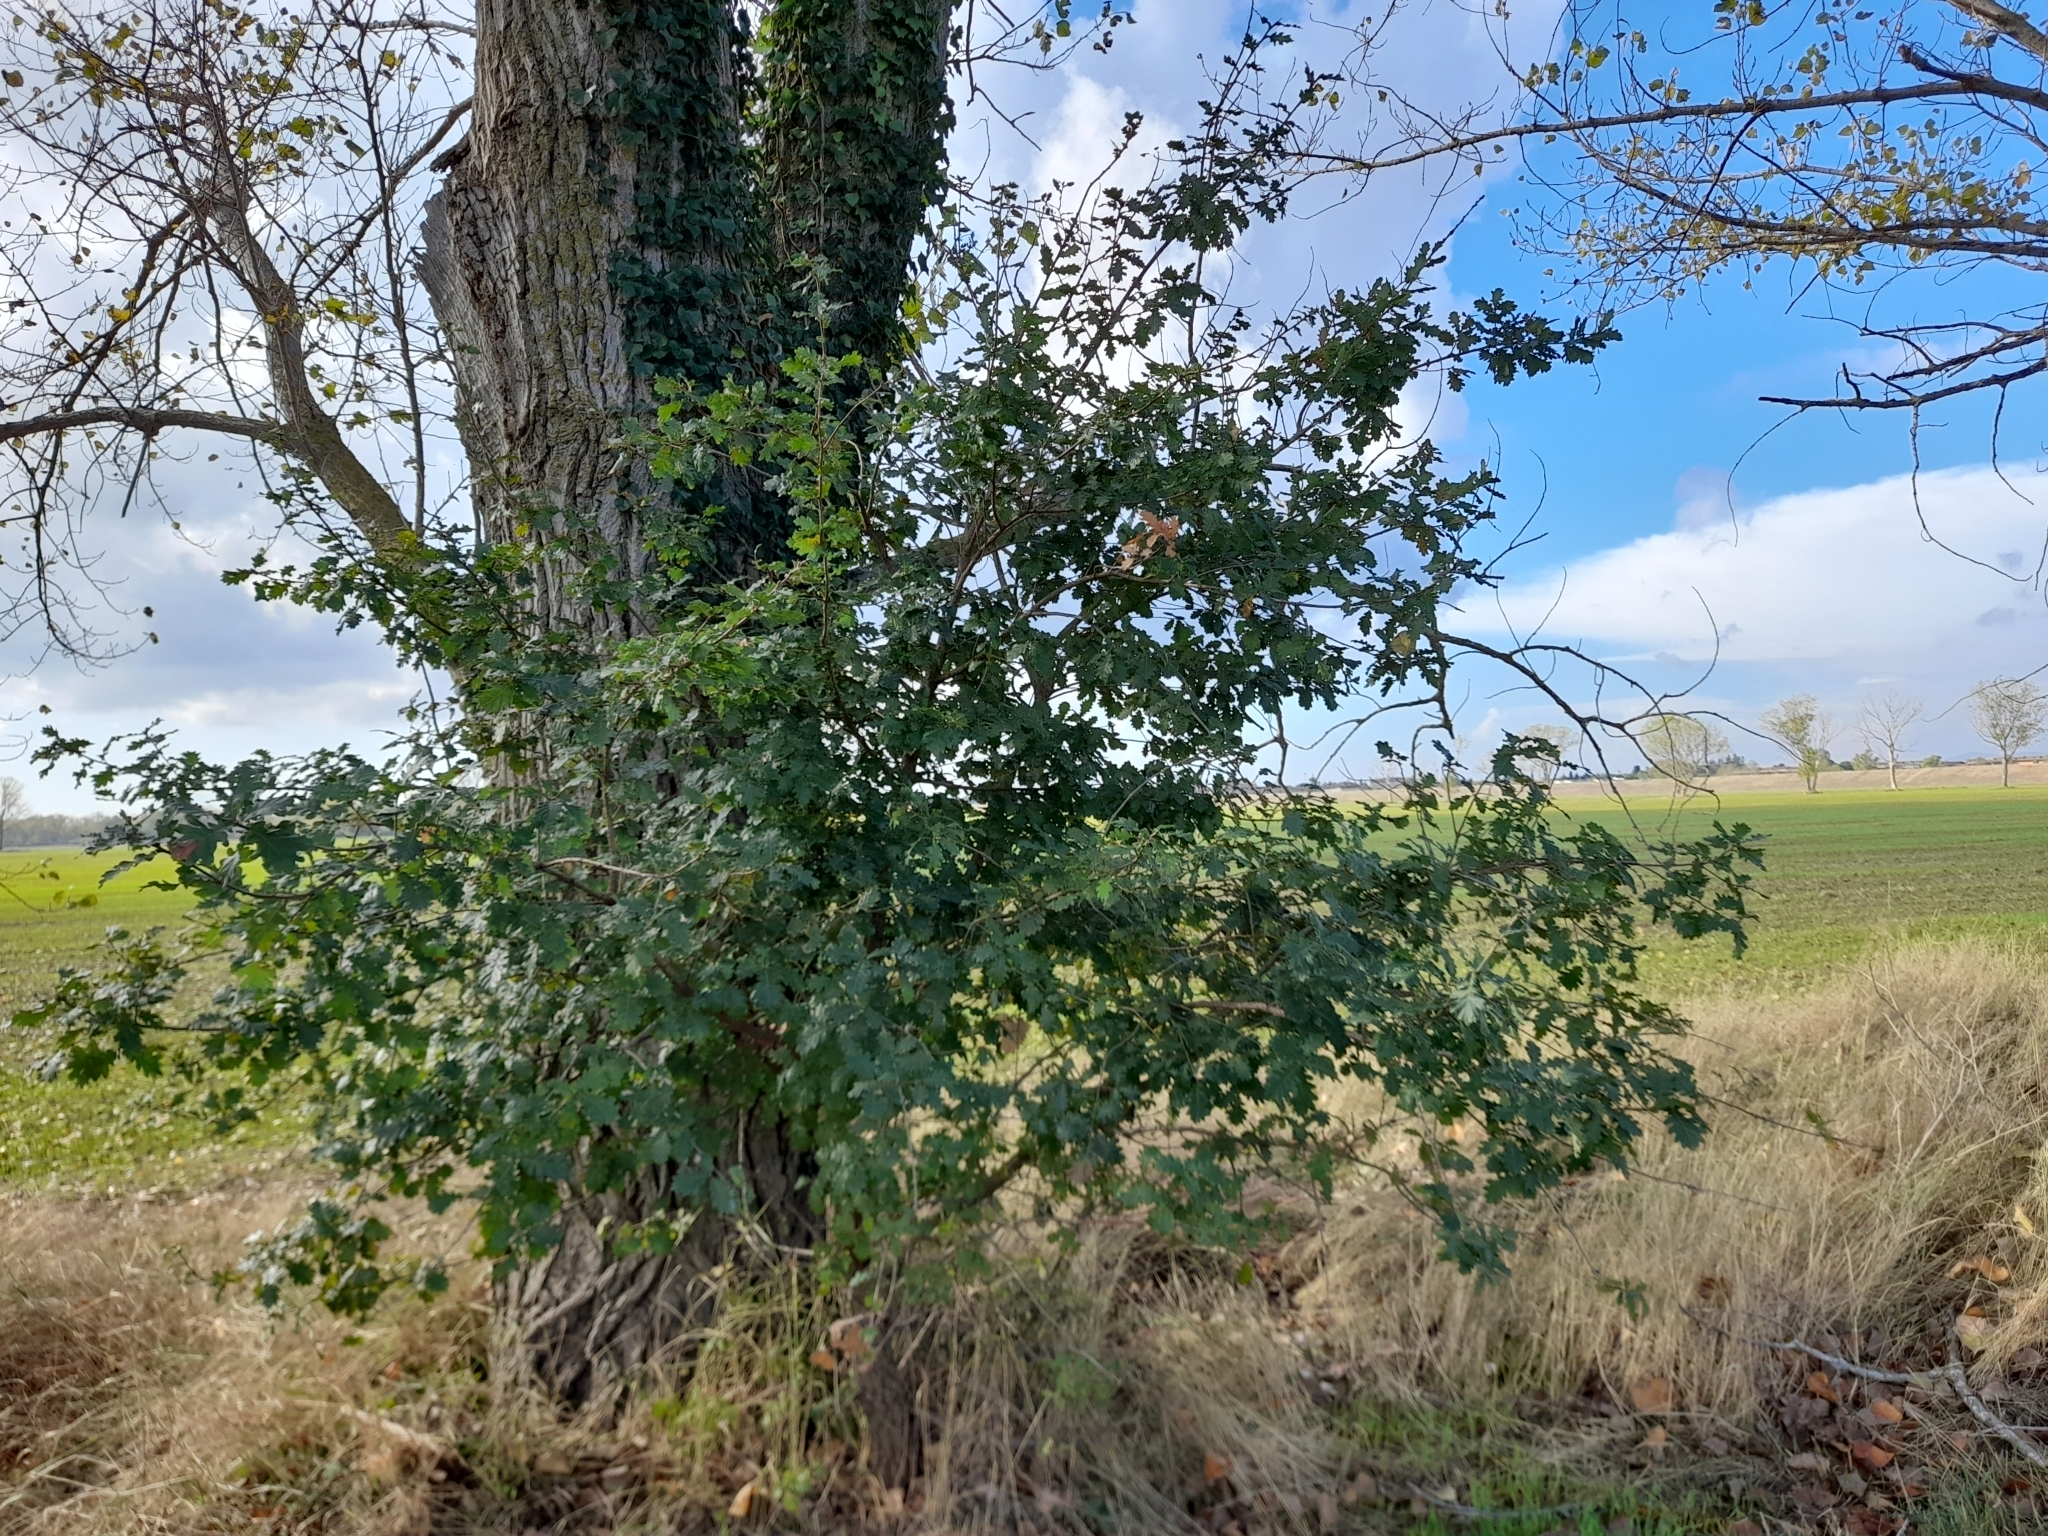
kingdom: Plantae
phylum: Tracheophyta
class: Magnoliopsida
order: Fagales
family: Fagaceae
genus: Quercus
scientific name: Quercus pubescens
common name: Downy oak
